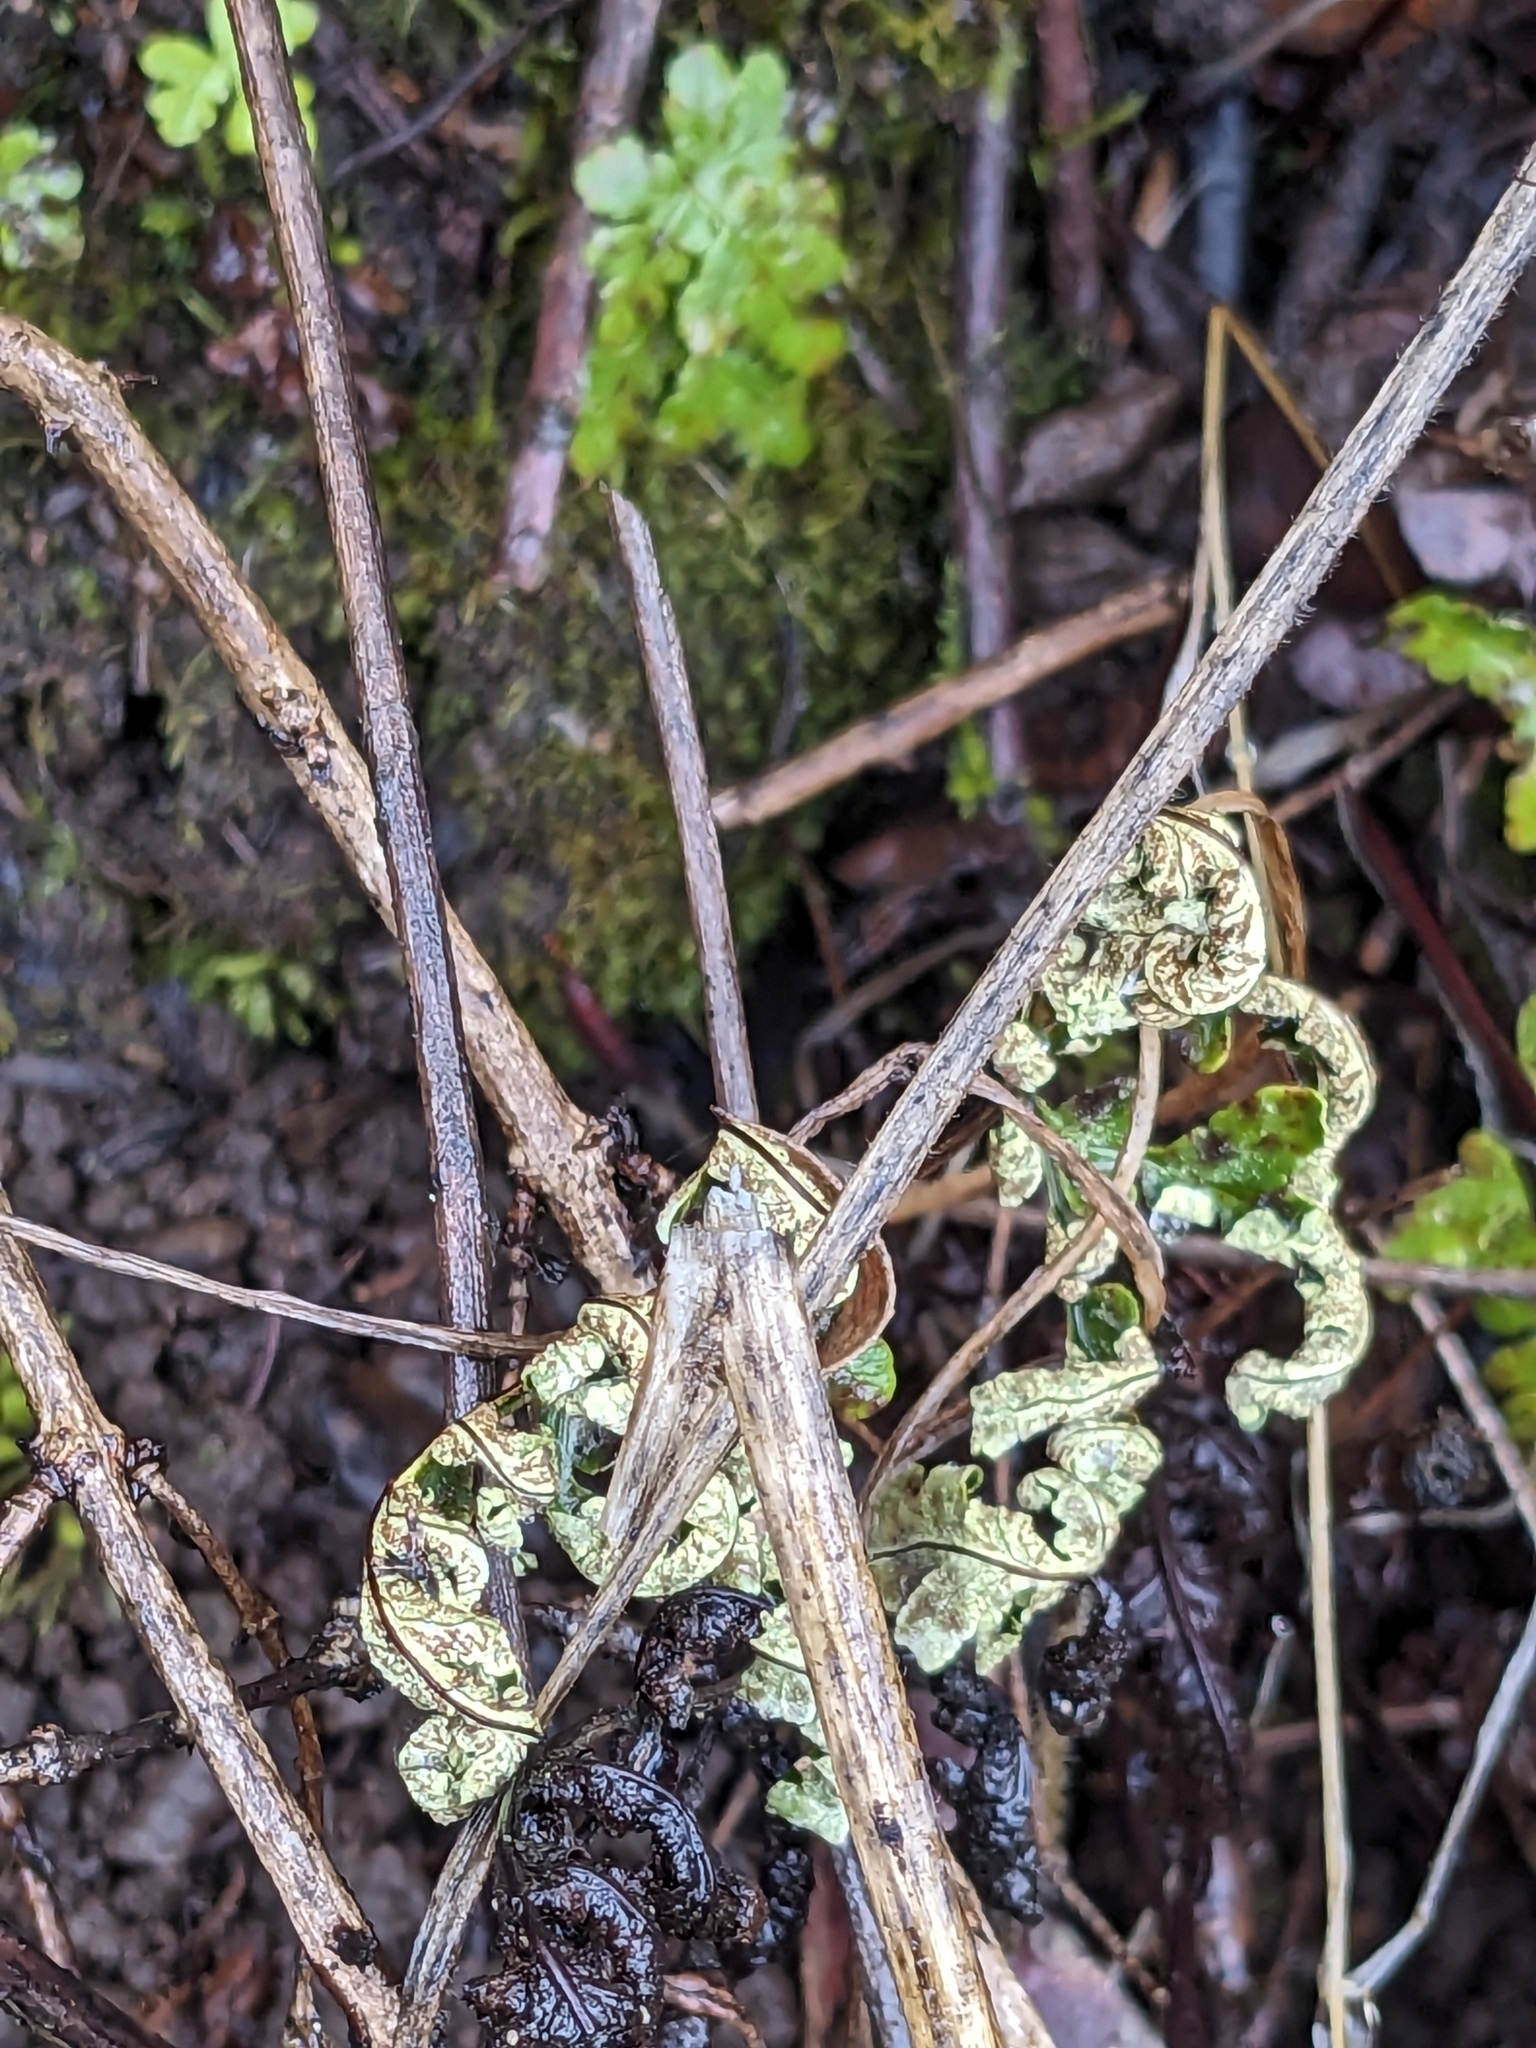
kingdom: Plantae
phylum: Tracheophyta
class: Polypodiopsida
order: Polypodiales
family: Pteridaceae
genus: Pentagramma
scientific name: Pentagramma triangularis
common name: Gold fern
